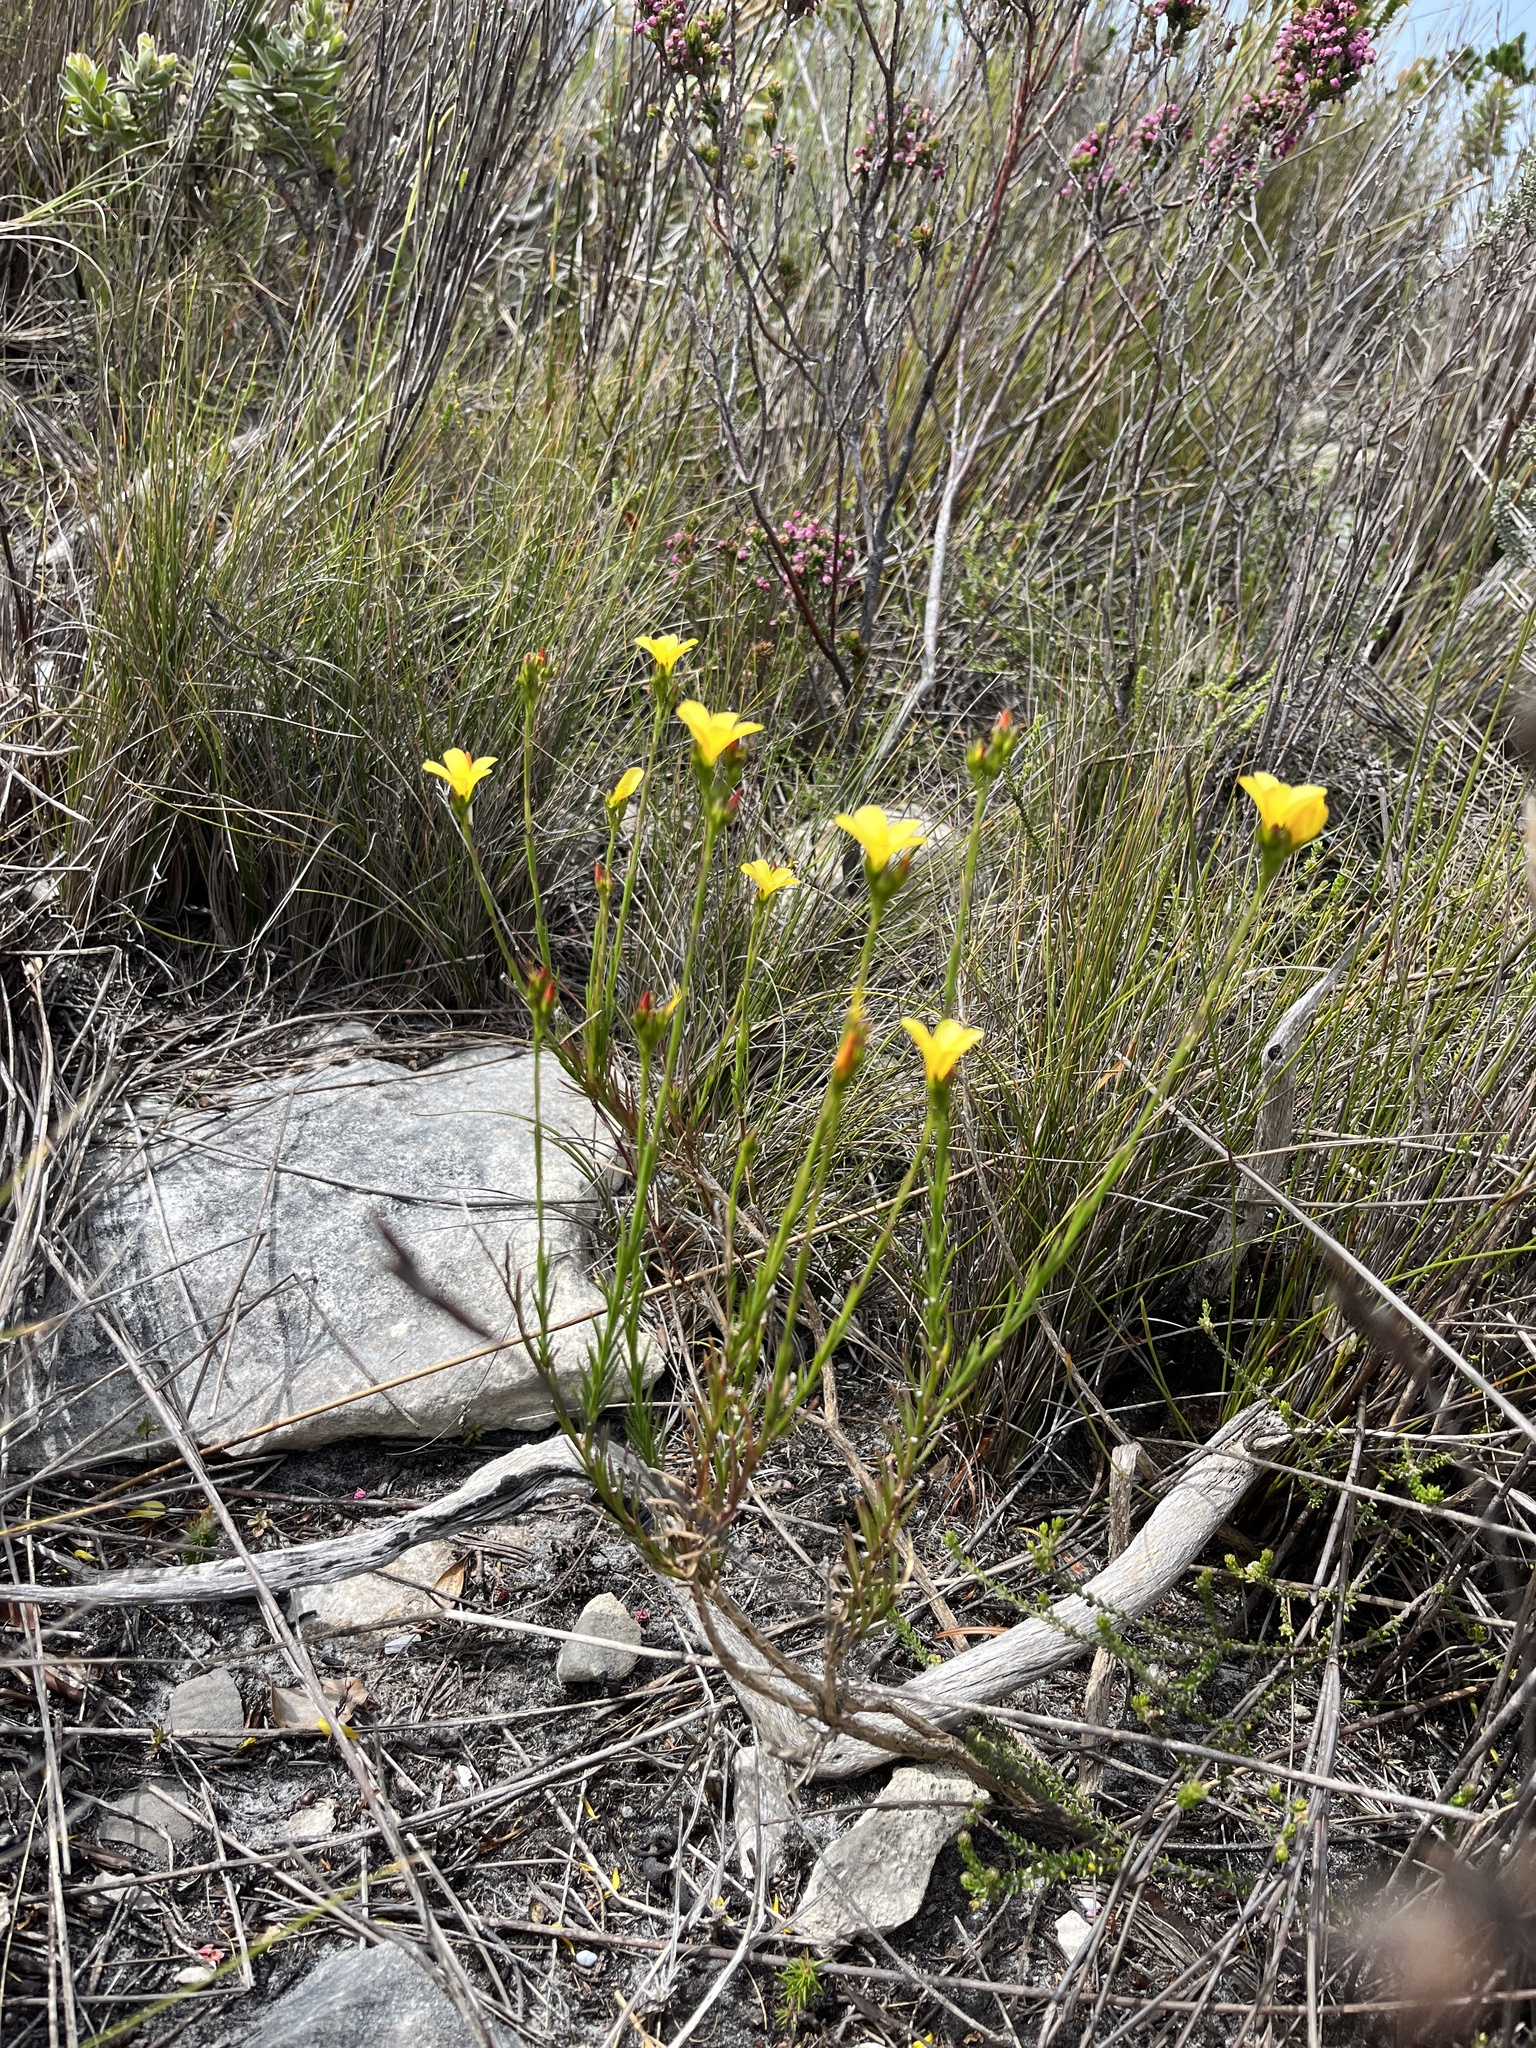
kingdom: Plantae
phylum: Tracheophyta
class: Magnoliopsida
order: Malpighiales
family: Linaceae
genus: Linum
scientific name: Linum africanum
